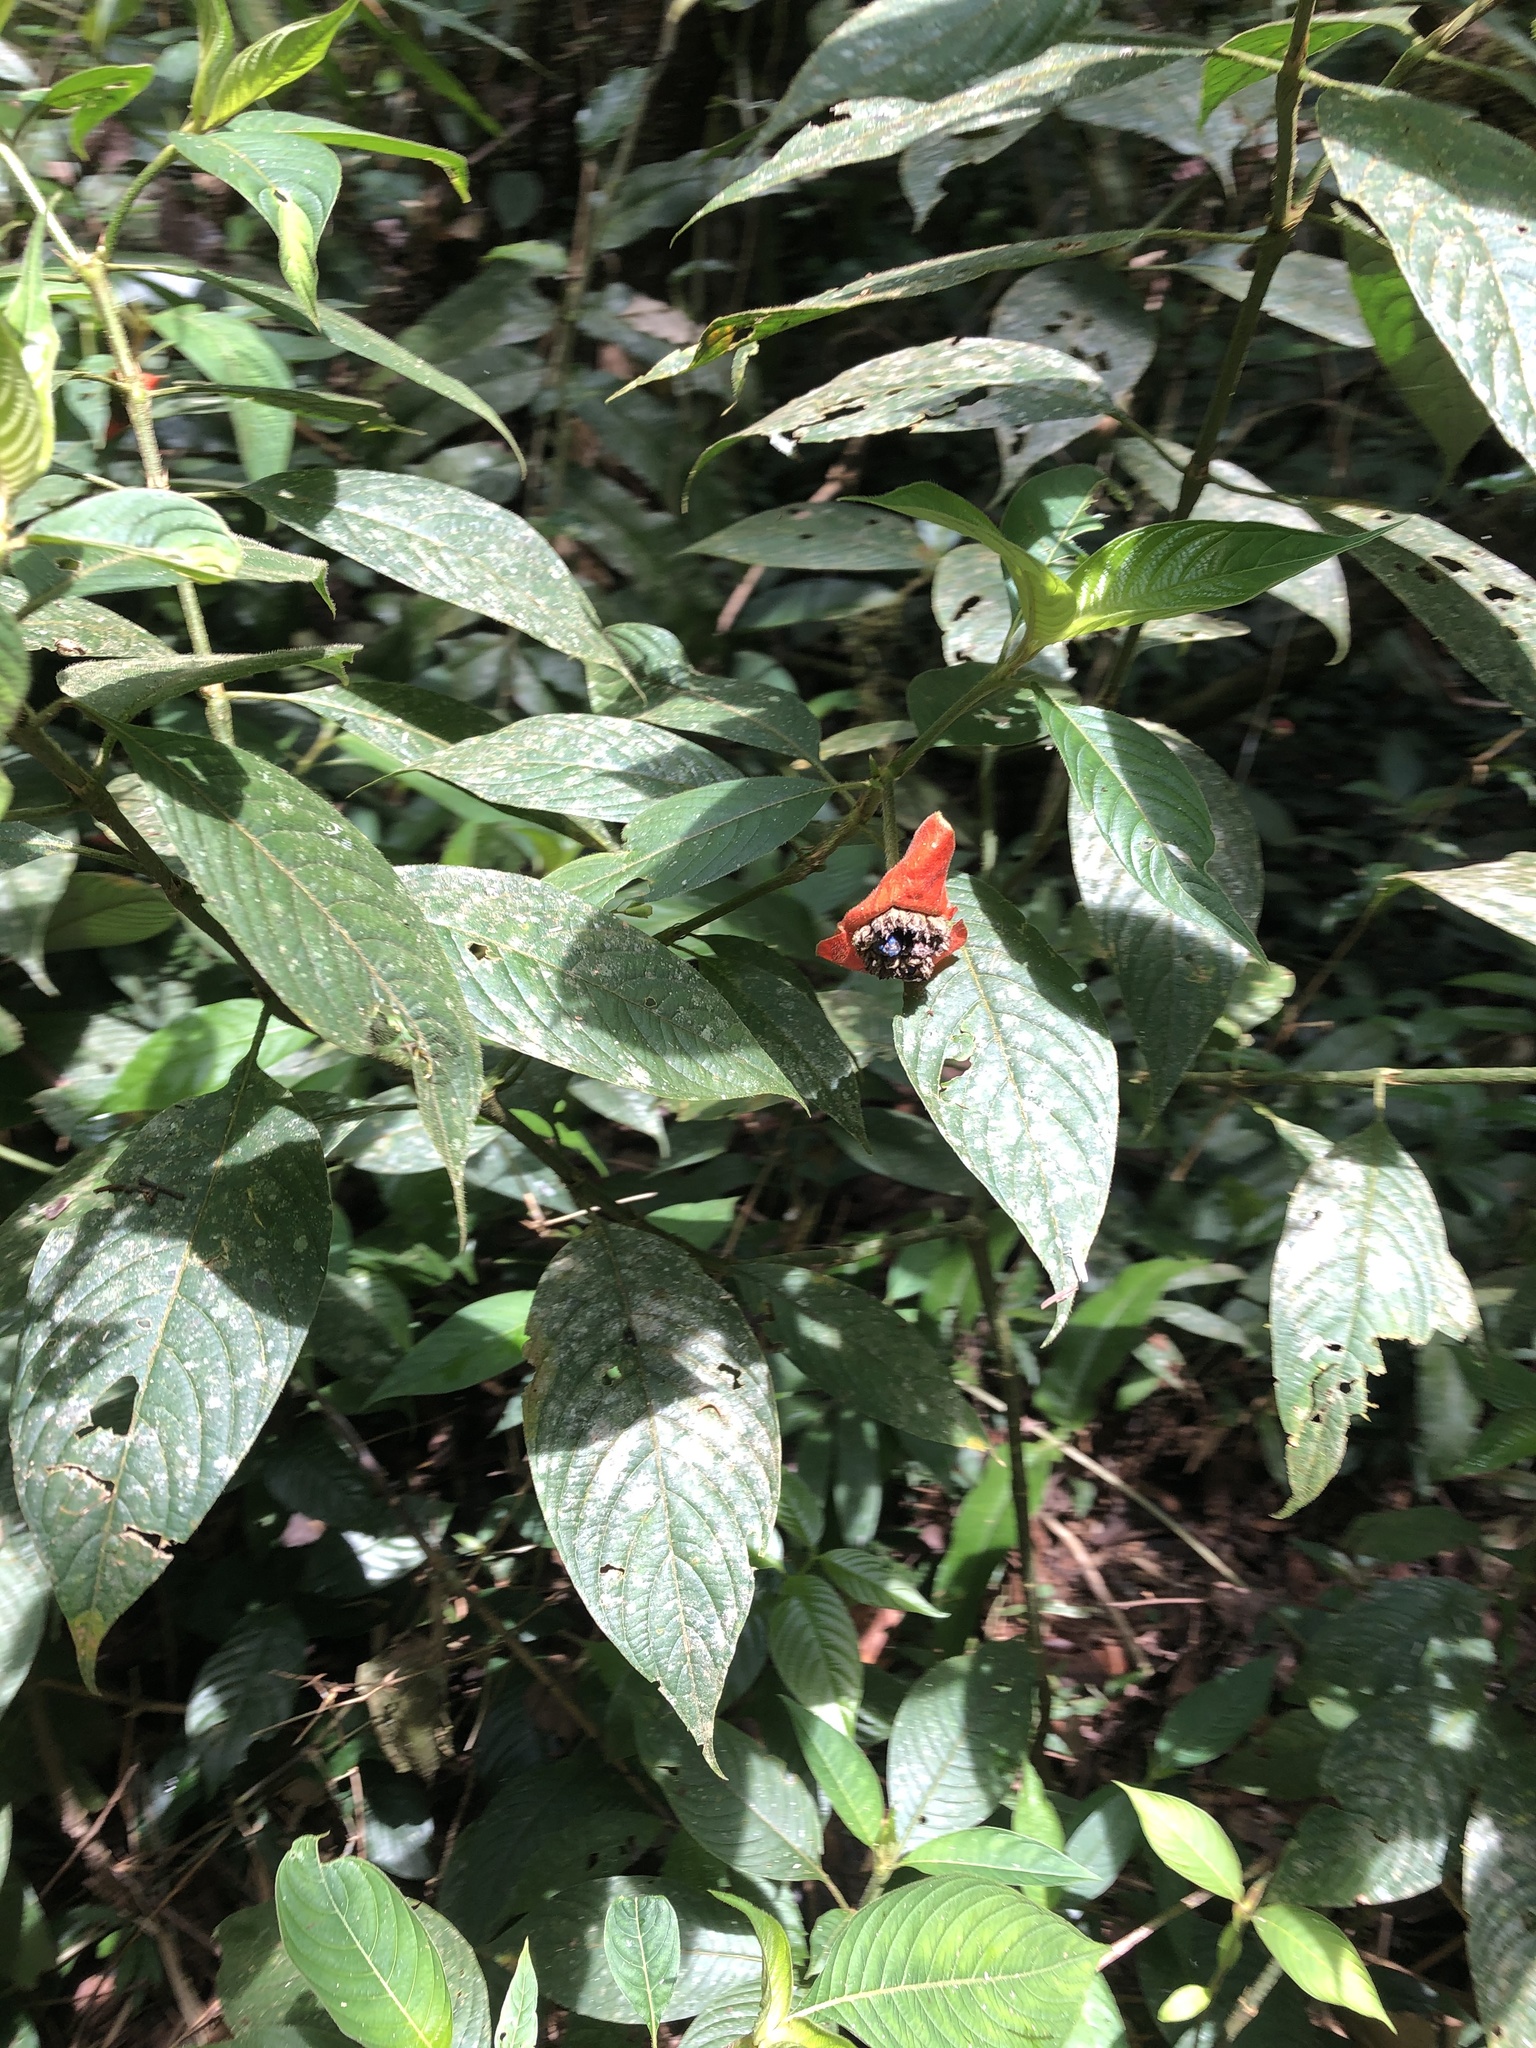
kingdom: Plantae
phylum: Tracheophyta
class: Magnoliopsida
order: Gentianales
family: Rubiaceae
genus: Palicourea
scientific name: Palicourea tomentosa
